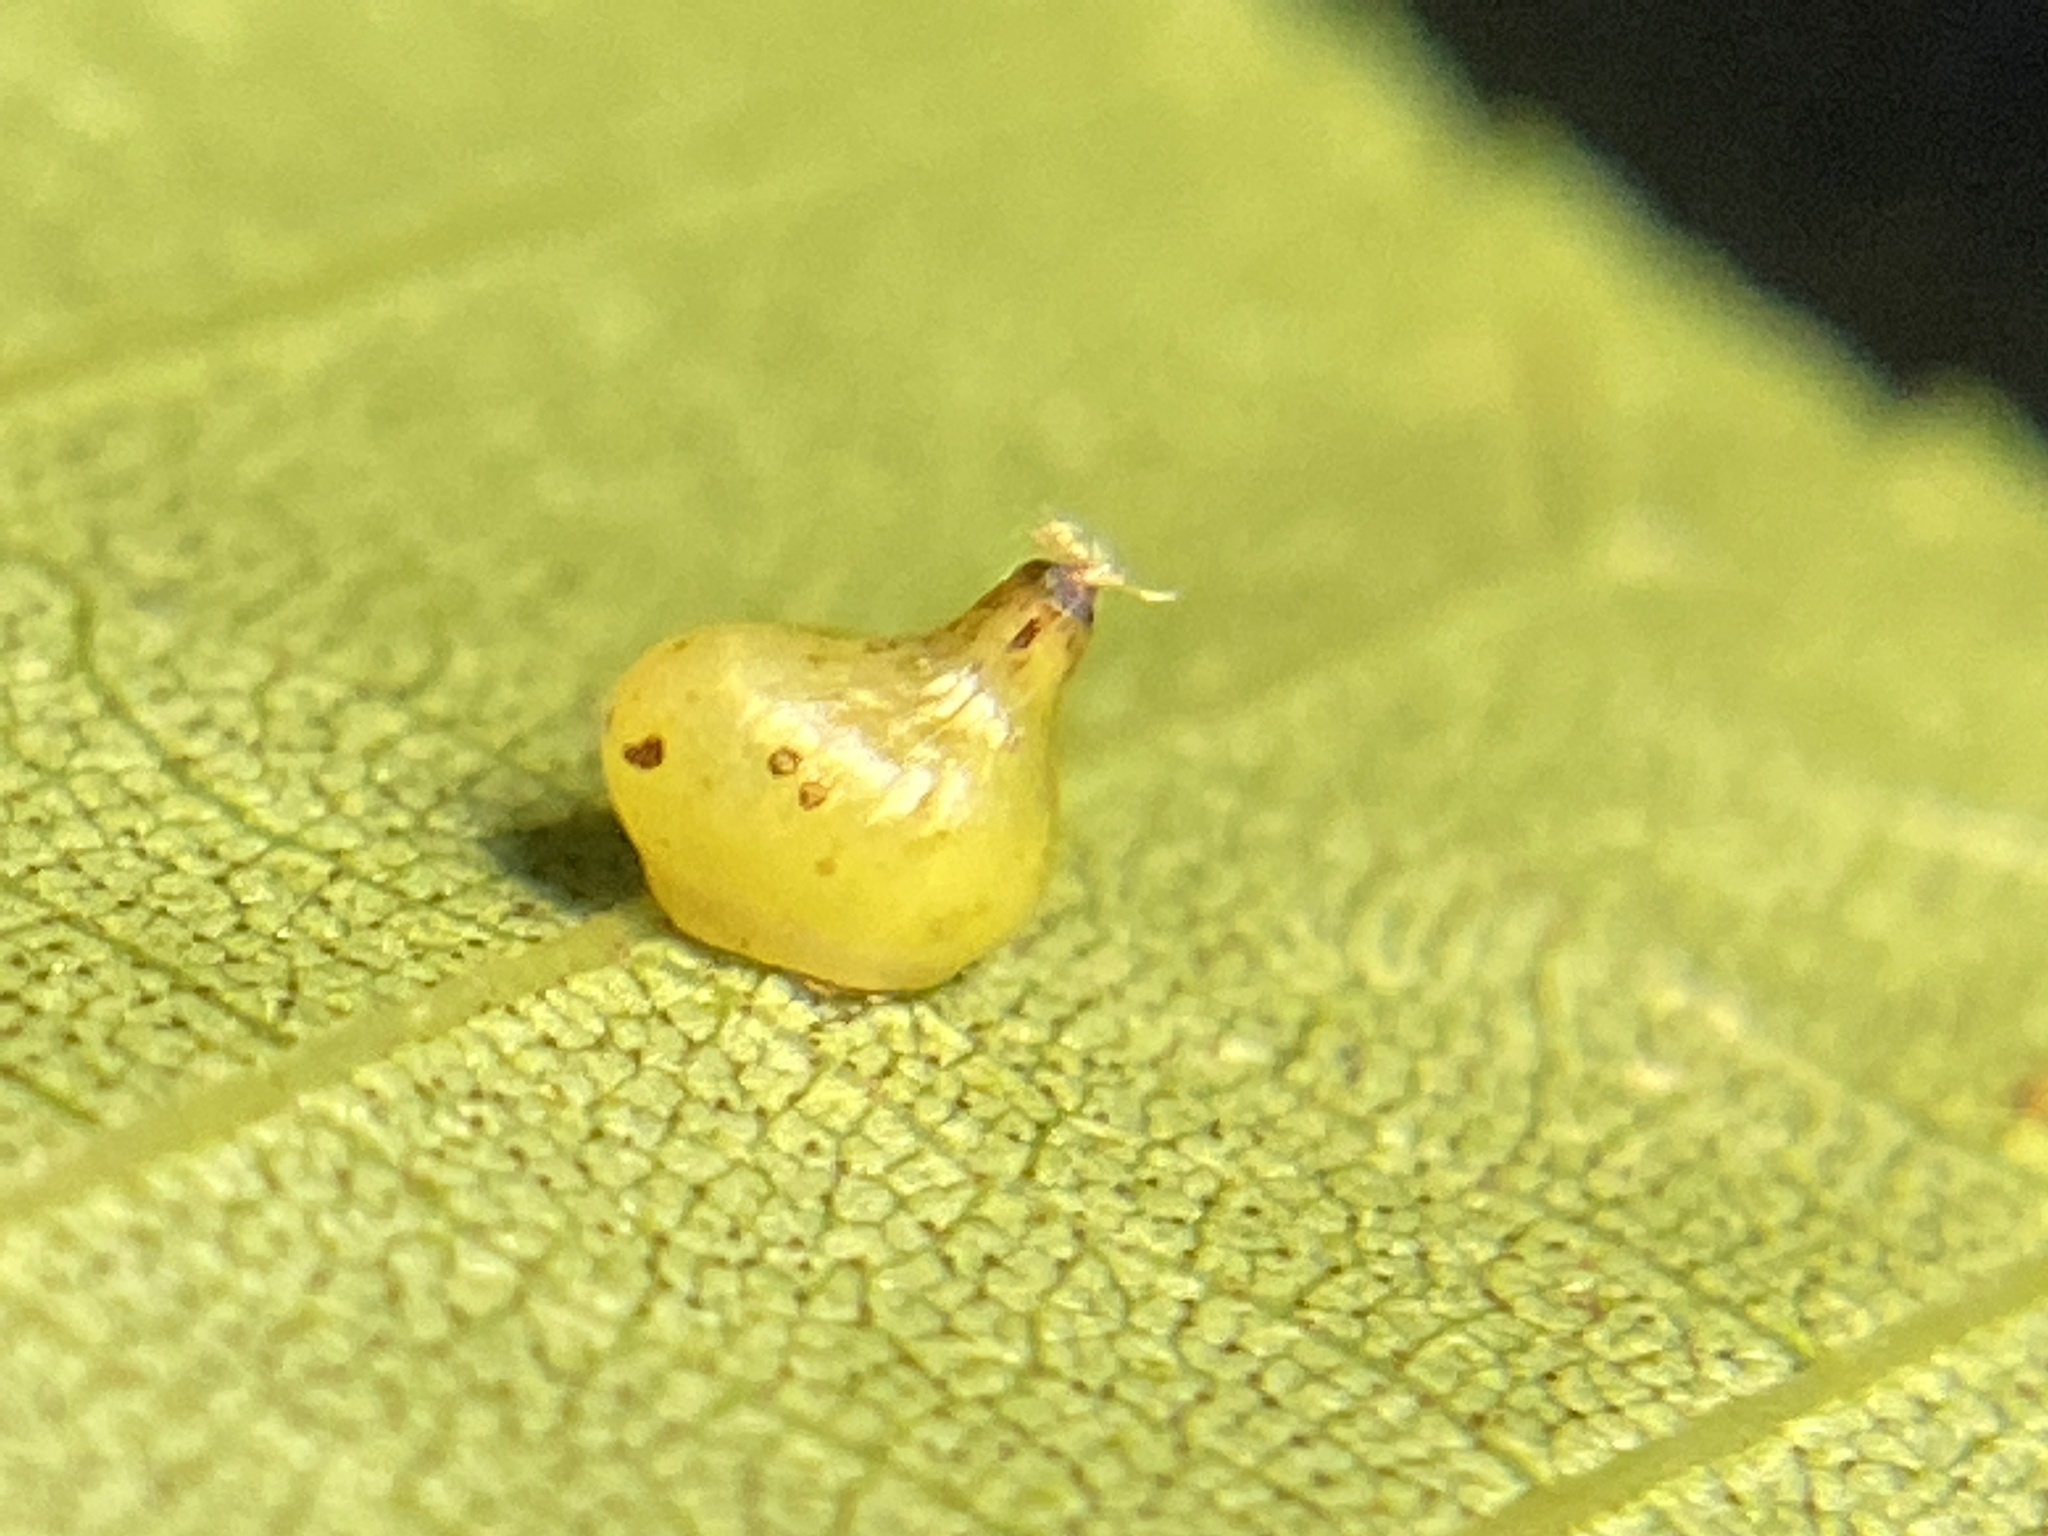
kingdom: Animalia
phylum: Arthropoda
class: Insecta
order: Diptera
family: Cecidomyiidae
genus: Caryomyia
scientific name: Caryomyia shmoo
